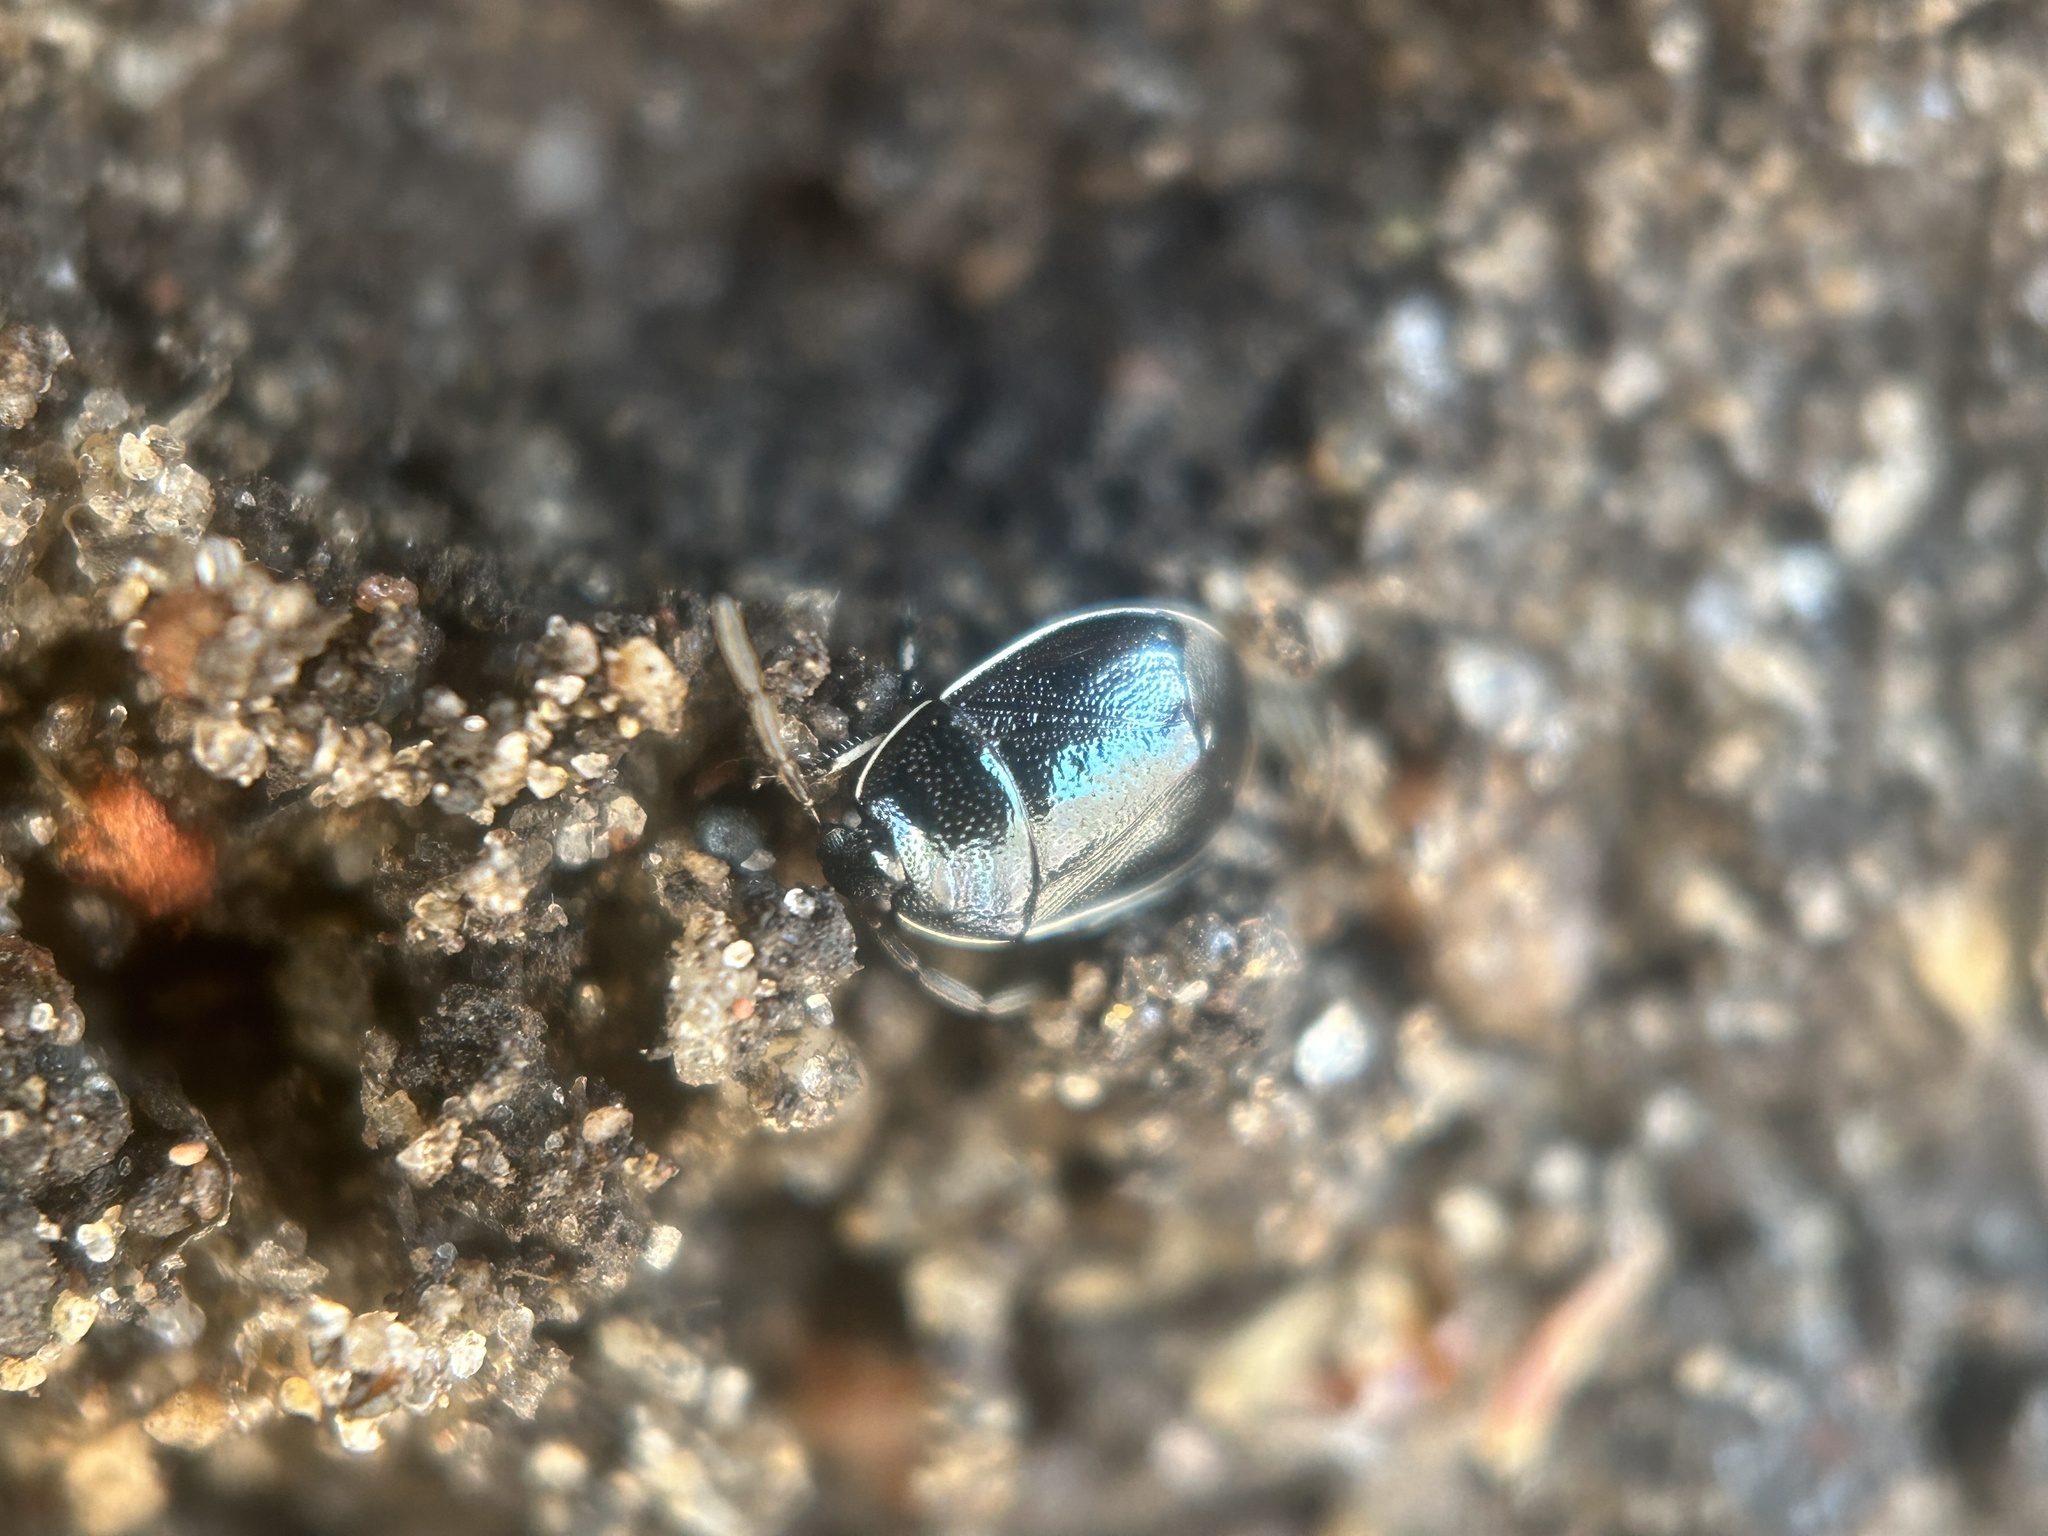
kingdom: Animalia
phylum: Arthropoda
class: Insecta
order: Hemiptera
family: Cydnidae
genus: Sehirus
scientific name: Sehirus cinctus
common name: White-margined burrower bug
